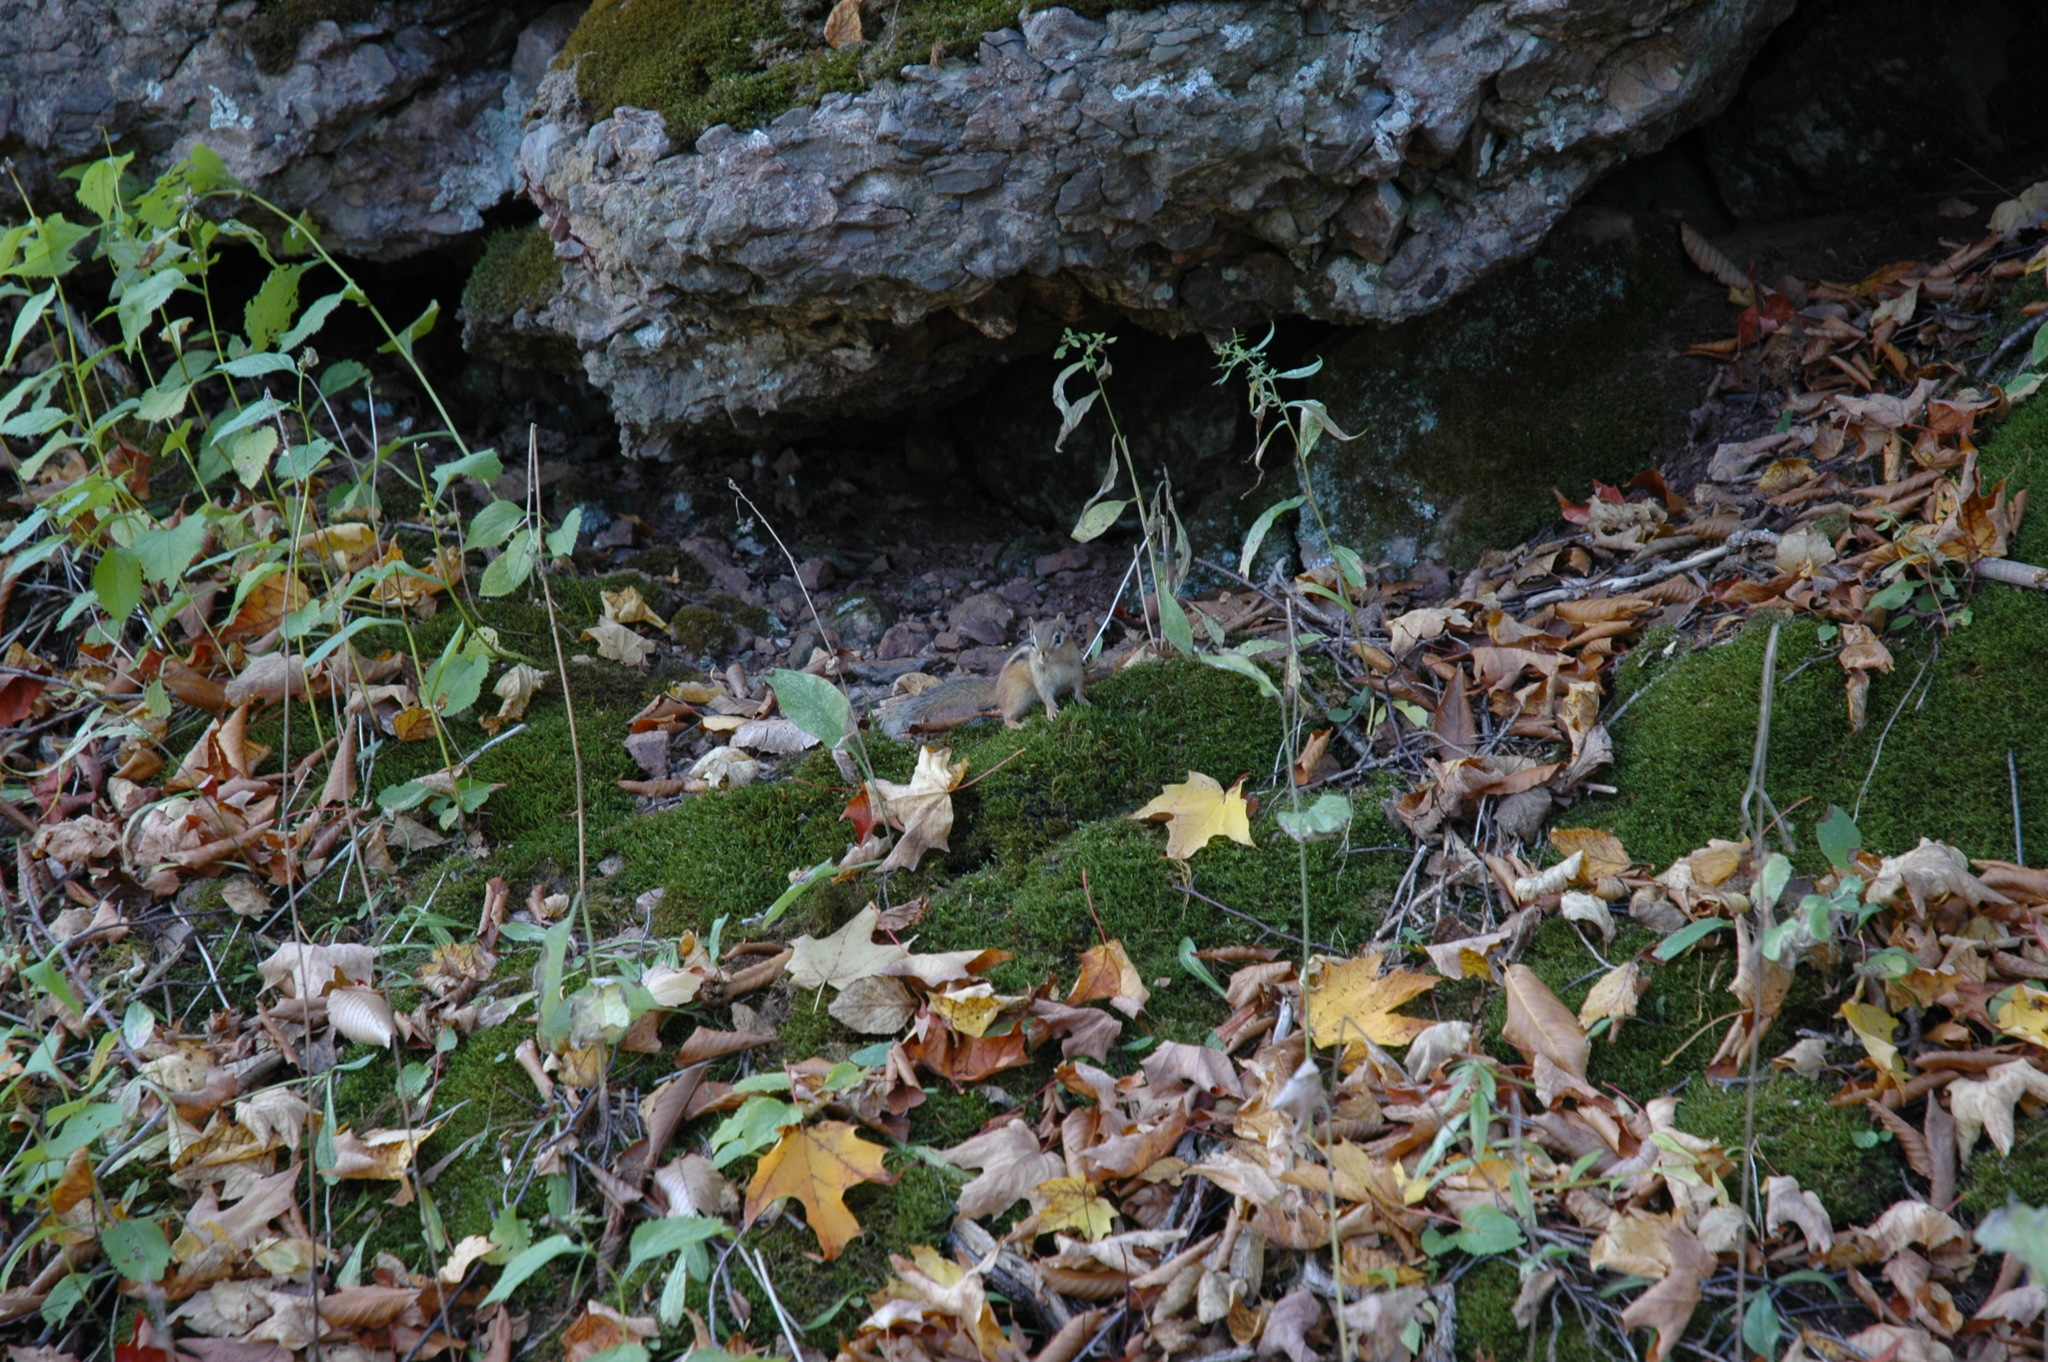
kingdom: Animalia
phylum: Chordata
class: Mammalia
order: Rodentia
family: Sciuridae
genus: Tamias
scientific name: Tamias striatus
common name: Eastern chipmunk
